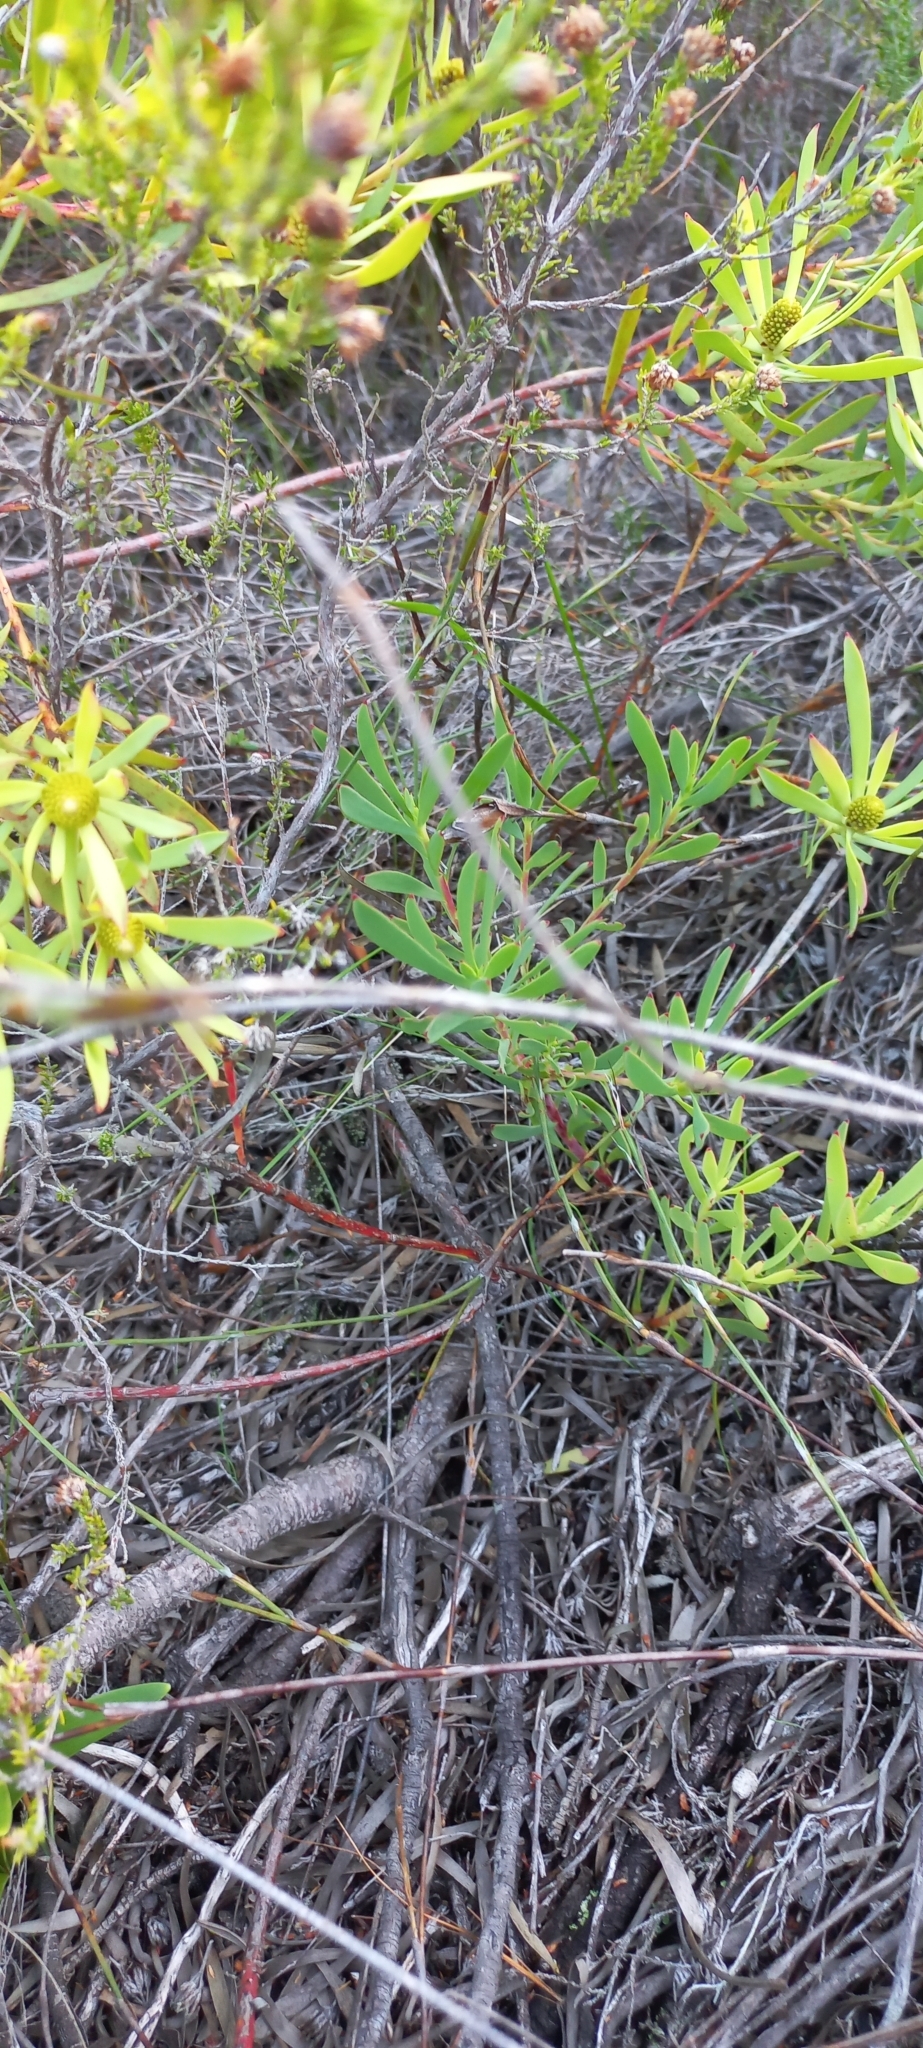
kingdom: Plantae
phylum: Tracheophyta
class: Magnoliopsida
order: Proteales
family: Proteaceae
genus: Leucadendron
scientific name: Leucadendron salignum
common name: Common sunshine conebush
